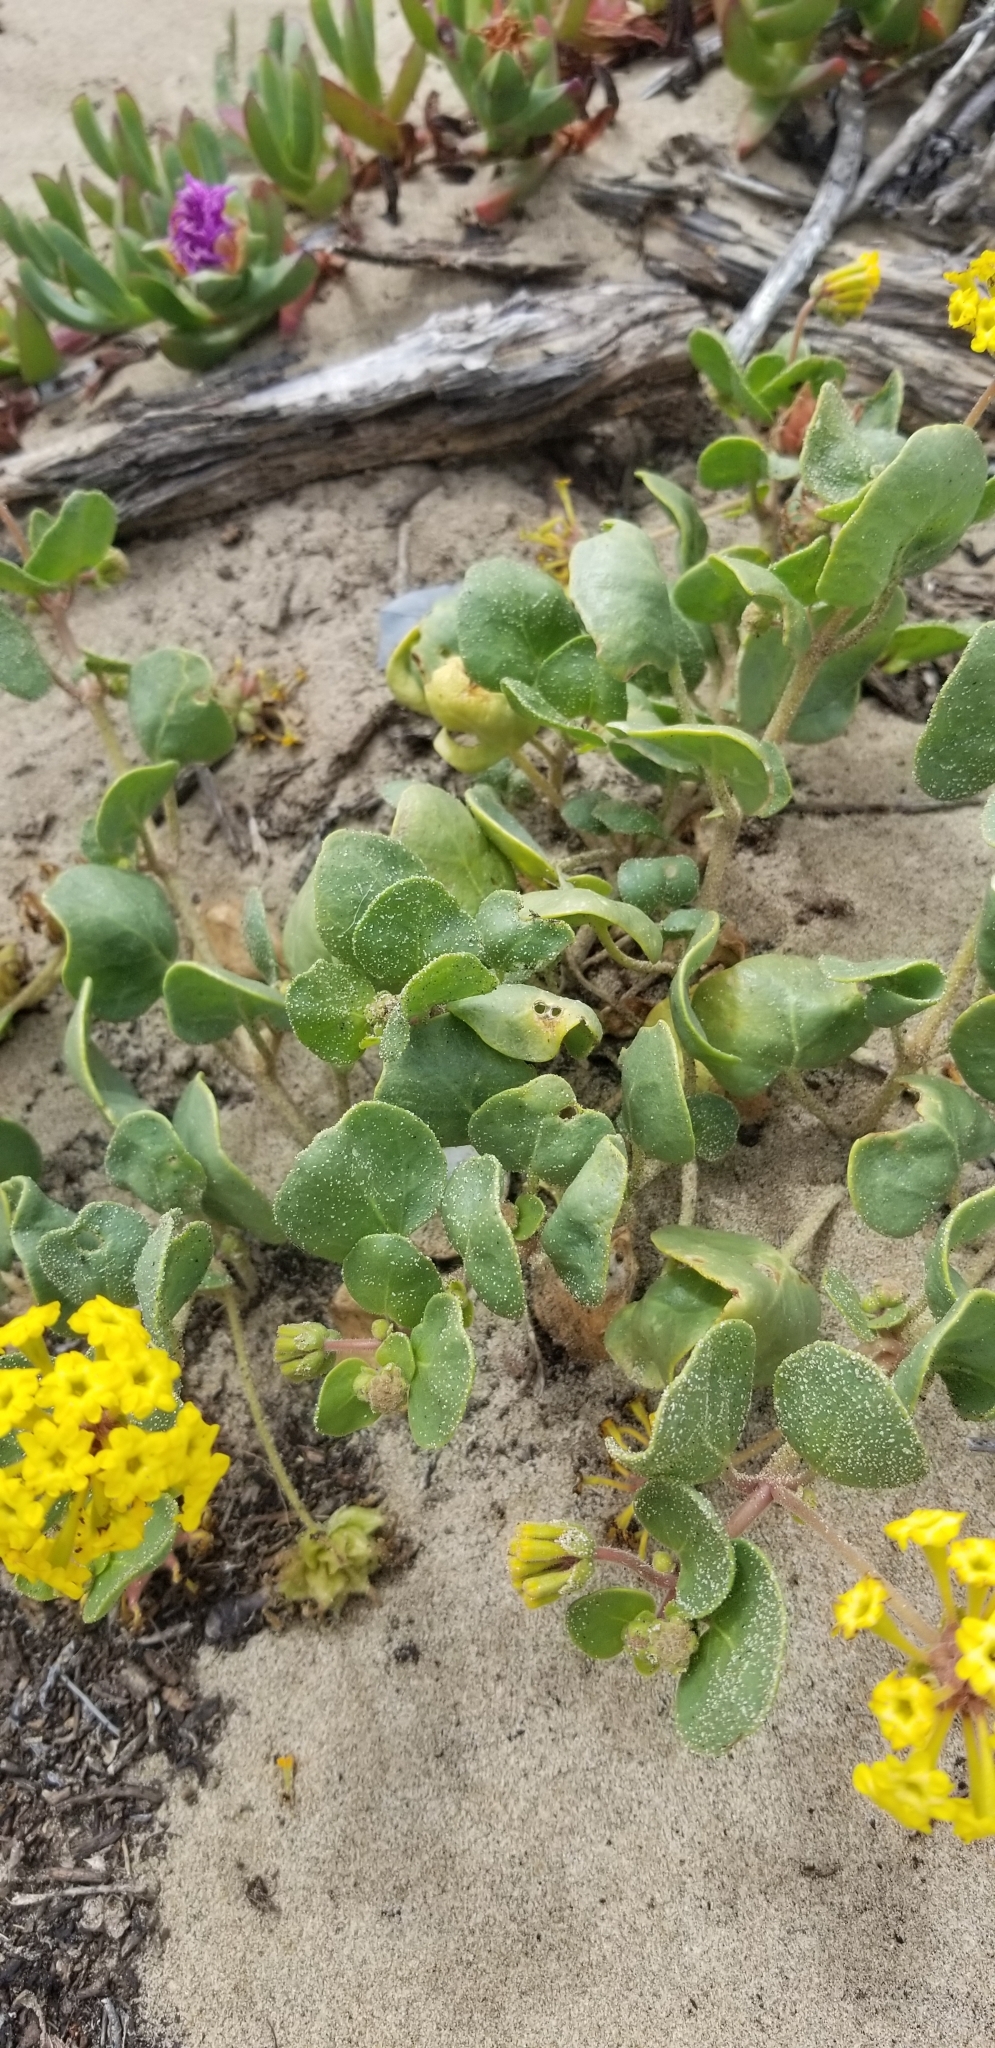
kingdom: Plantae
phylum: Tracheophyta
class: Magnoliopsida
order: Caryophyllales
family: Nyctaginaceae
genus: Abronia
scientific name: Abronia latifolia
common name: Yellow sand-verbena
